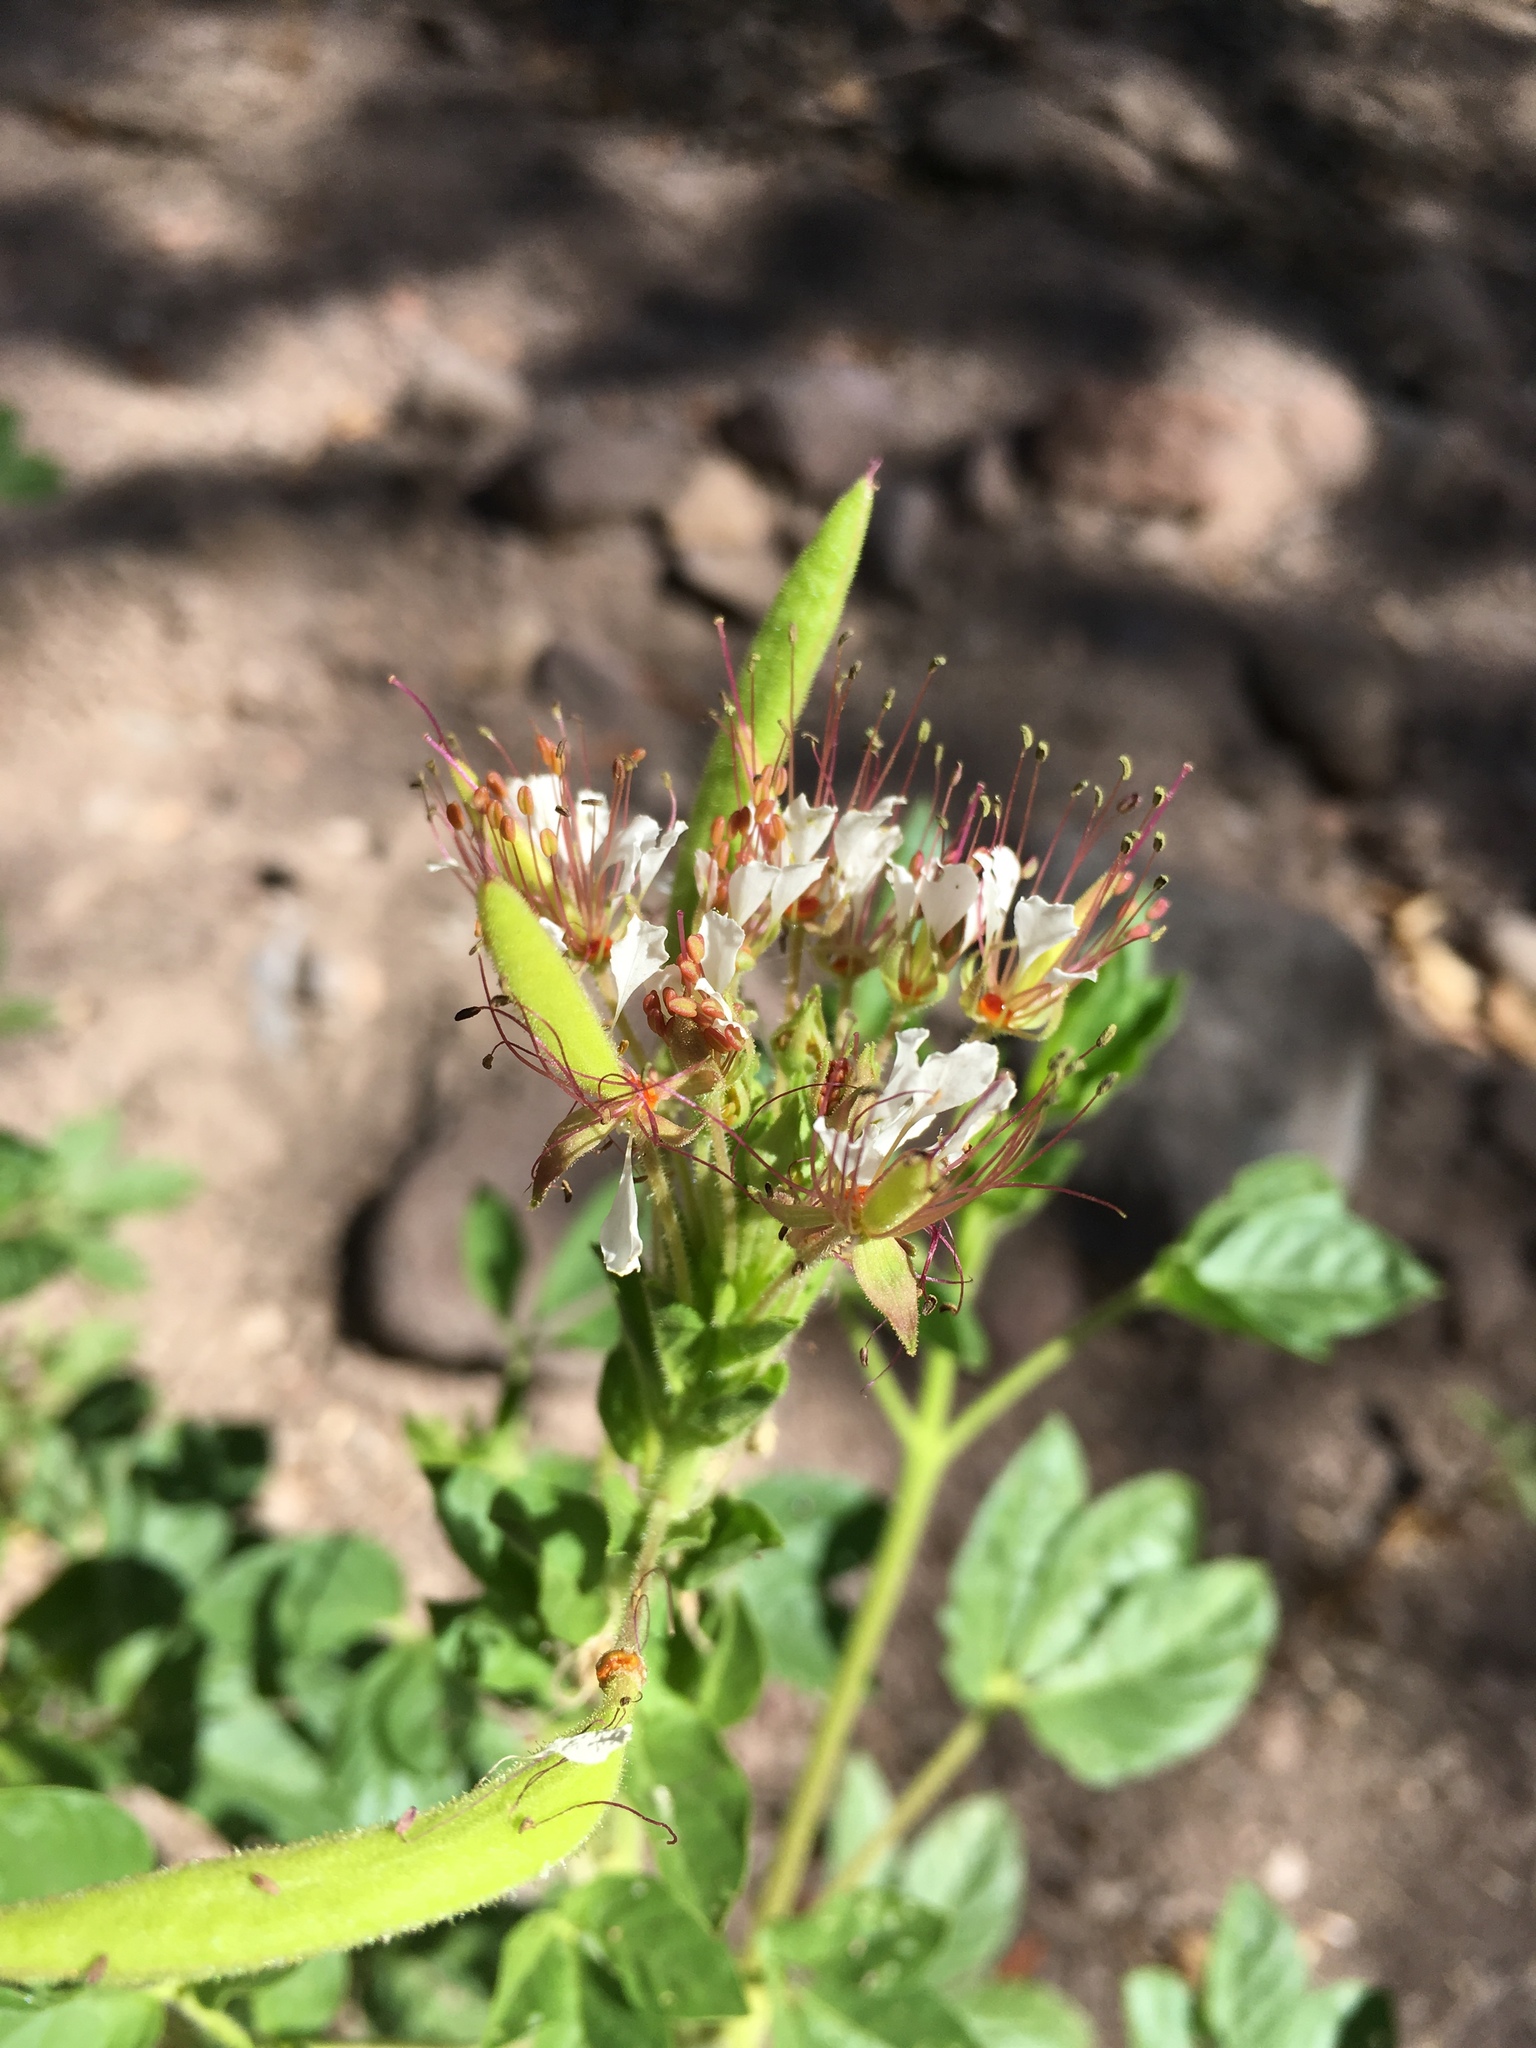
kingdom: Plantae
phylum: Tracheophyta
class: Magnoliopsida
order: Brassicales
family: Cleomaceae
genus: Polanisia
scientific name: Polanisia dodecandra
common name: Clammyweed
